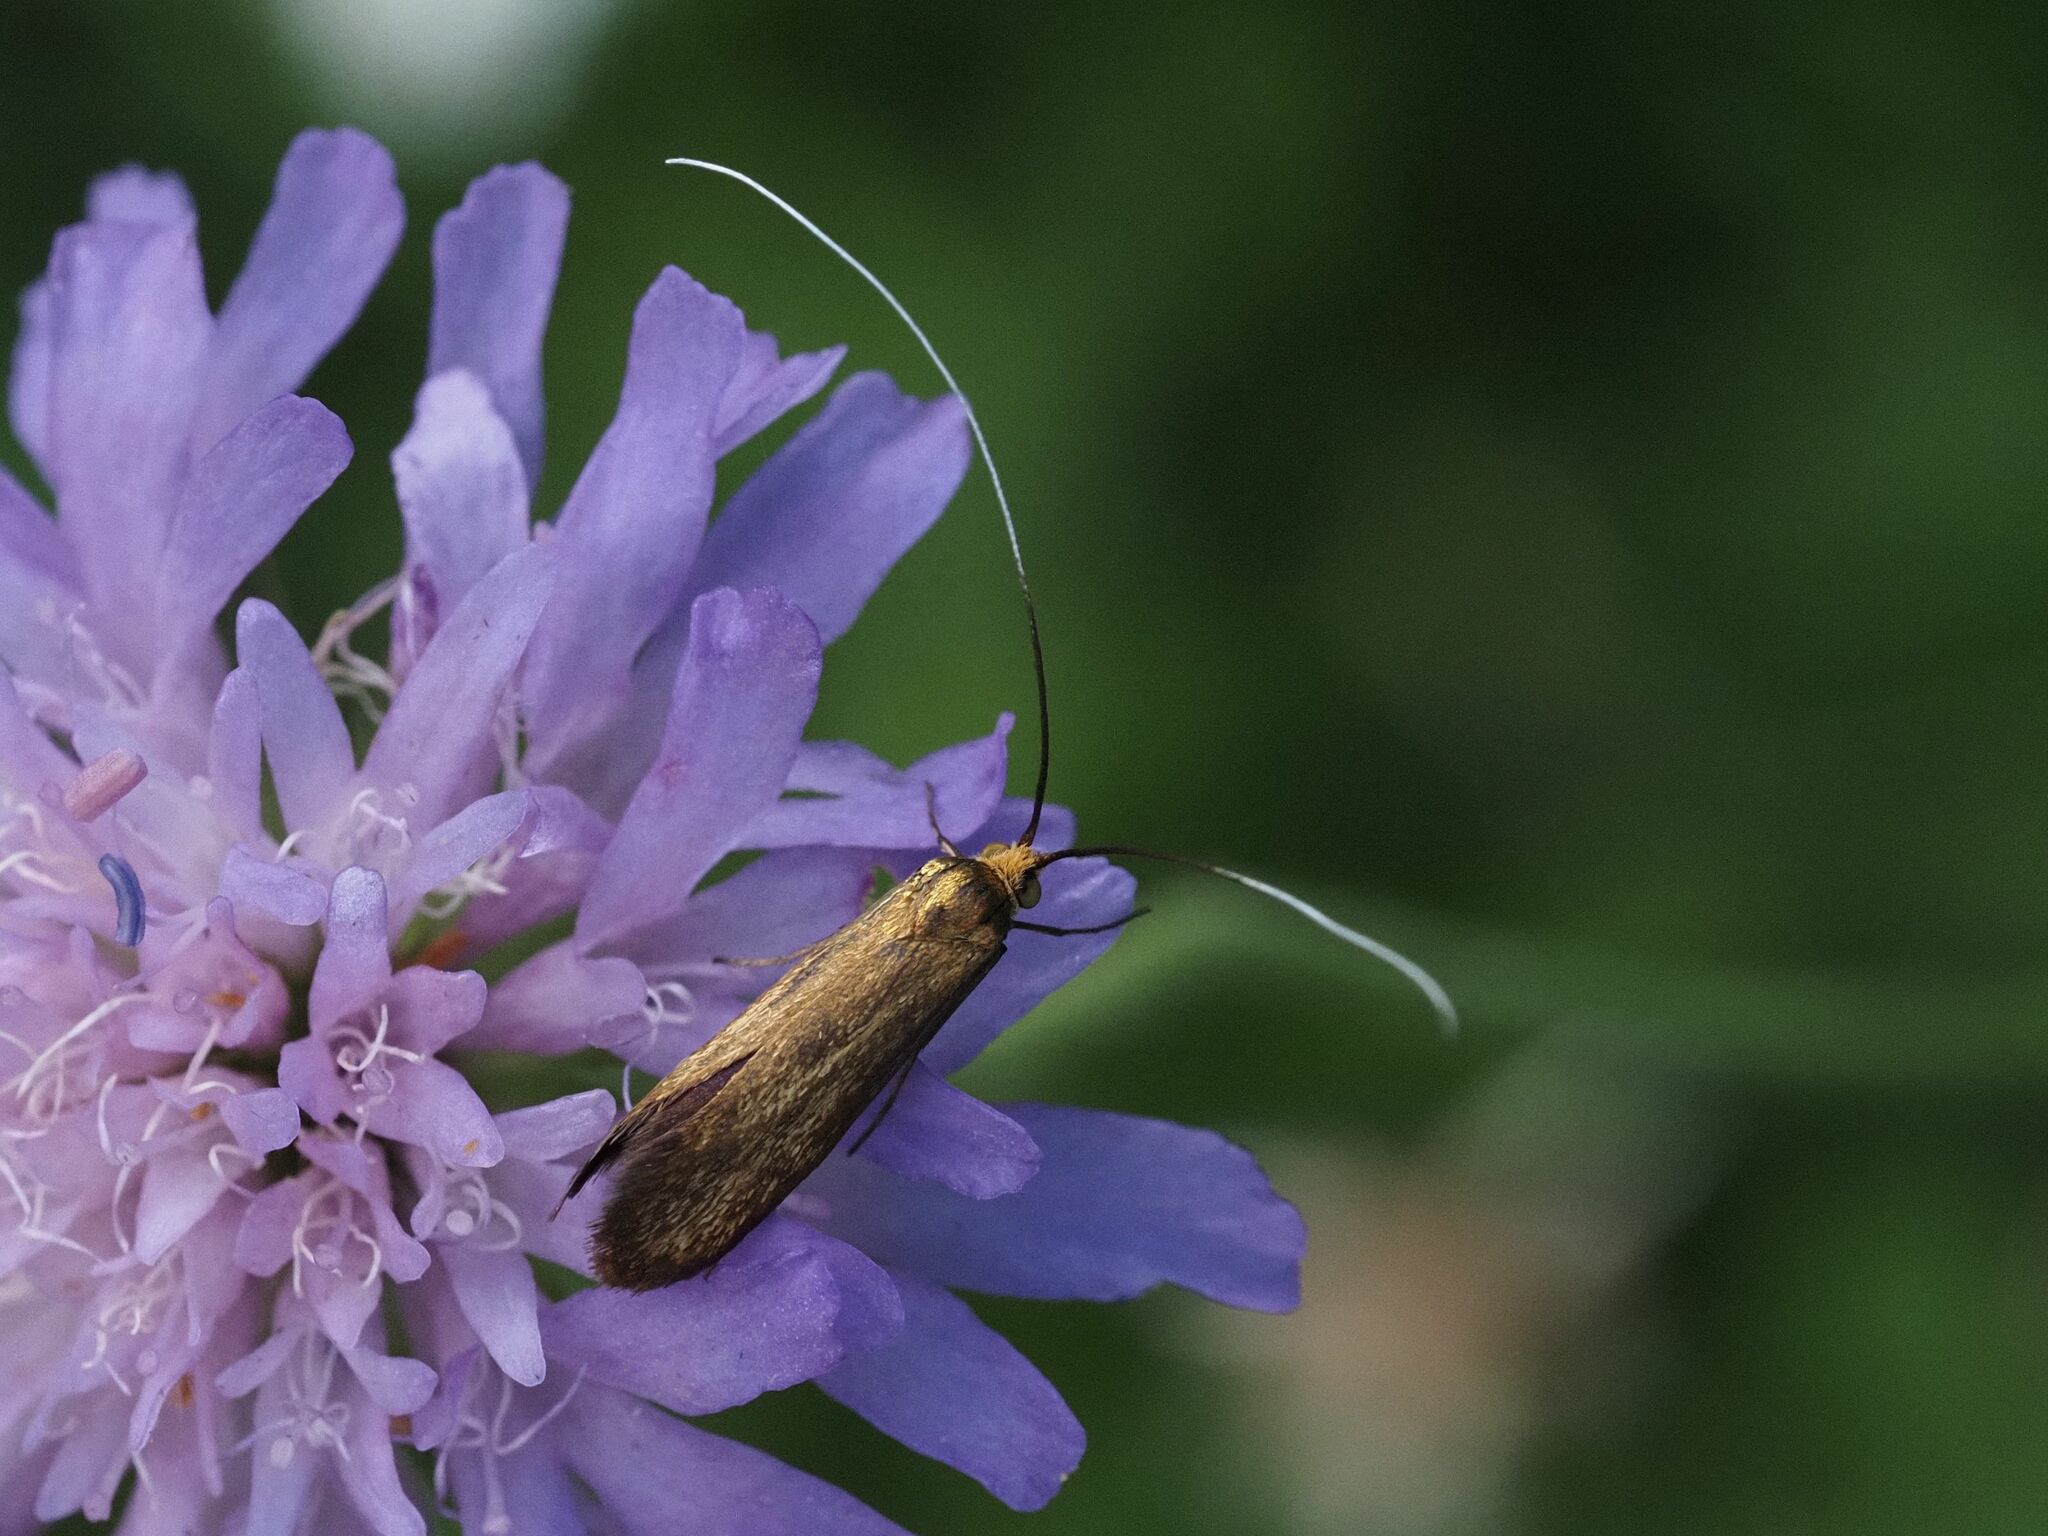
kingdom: Animalia
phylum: Arthropoda
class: Insecta
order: Lepidoptera
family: Adelidae
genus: Nemophora
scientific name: Nemophora metallica
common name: Brassy long-horn
